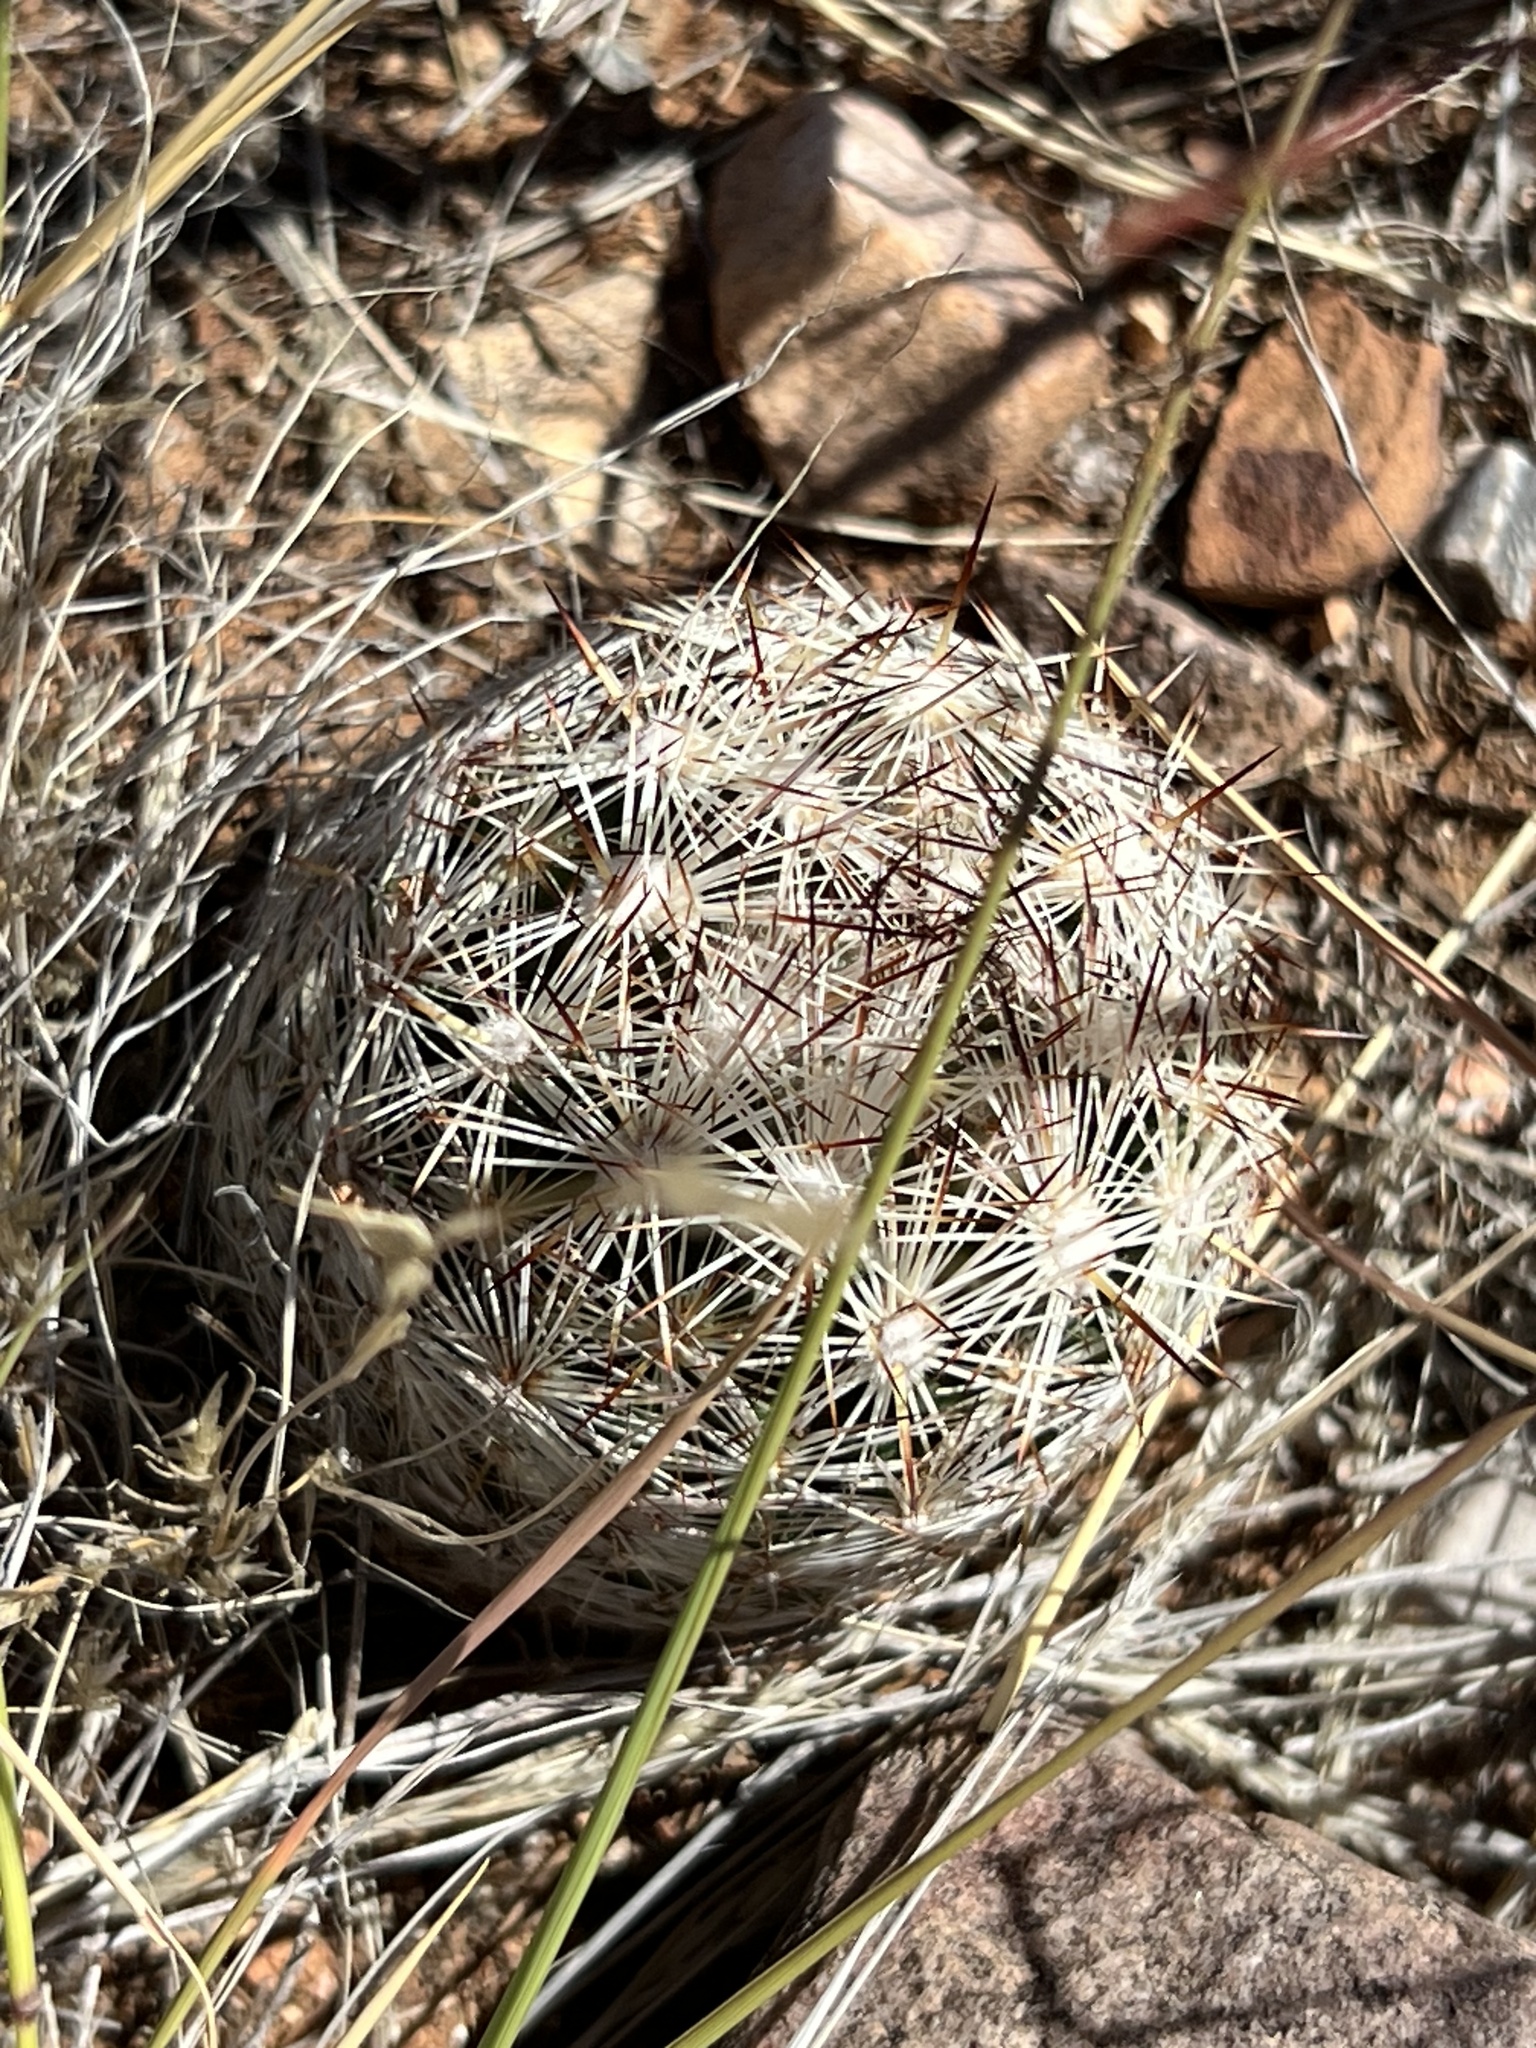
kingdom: Plantae
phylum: Tracheophyta
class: Magnoliopsida
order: Caryophyllales
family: Cactaceae
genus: Pelecyphora
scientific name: Pelecyphora vivipara
